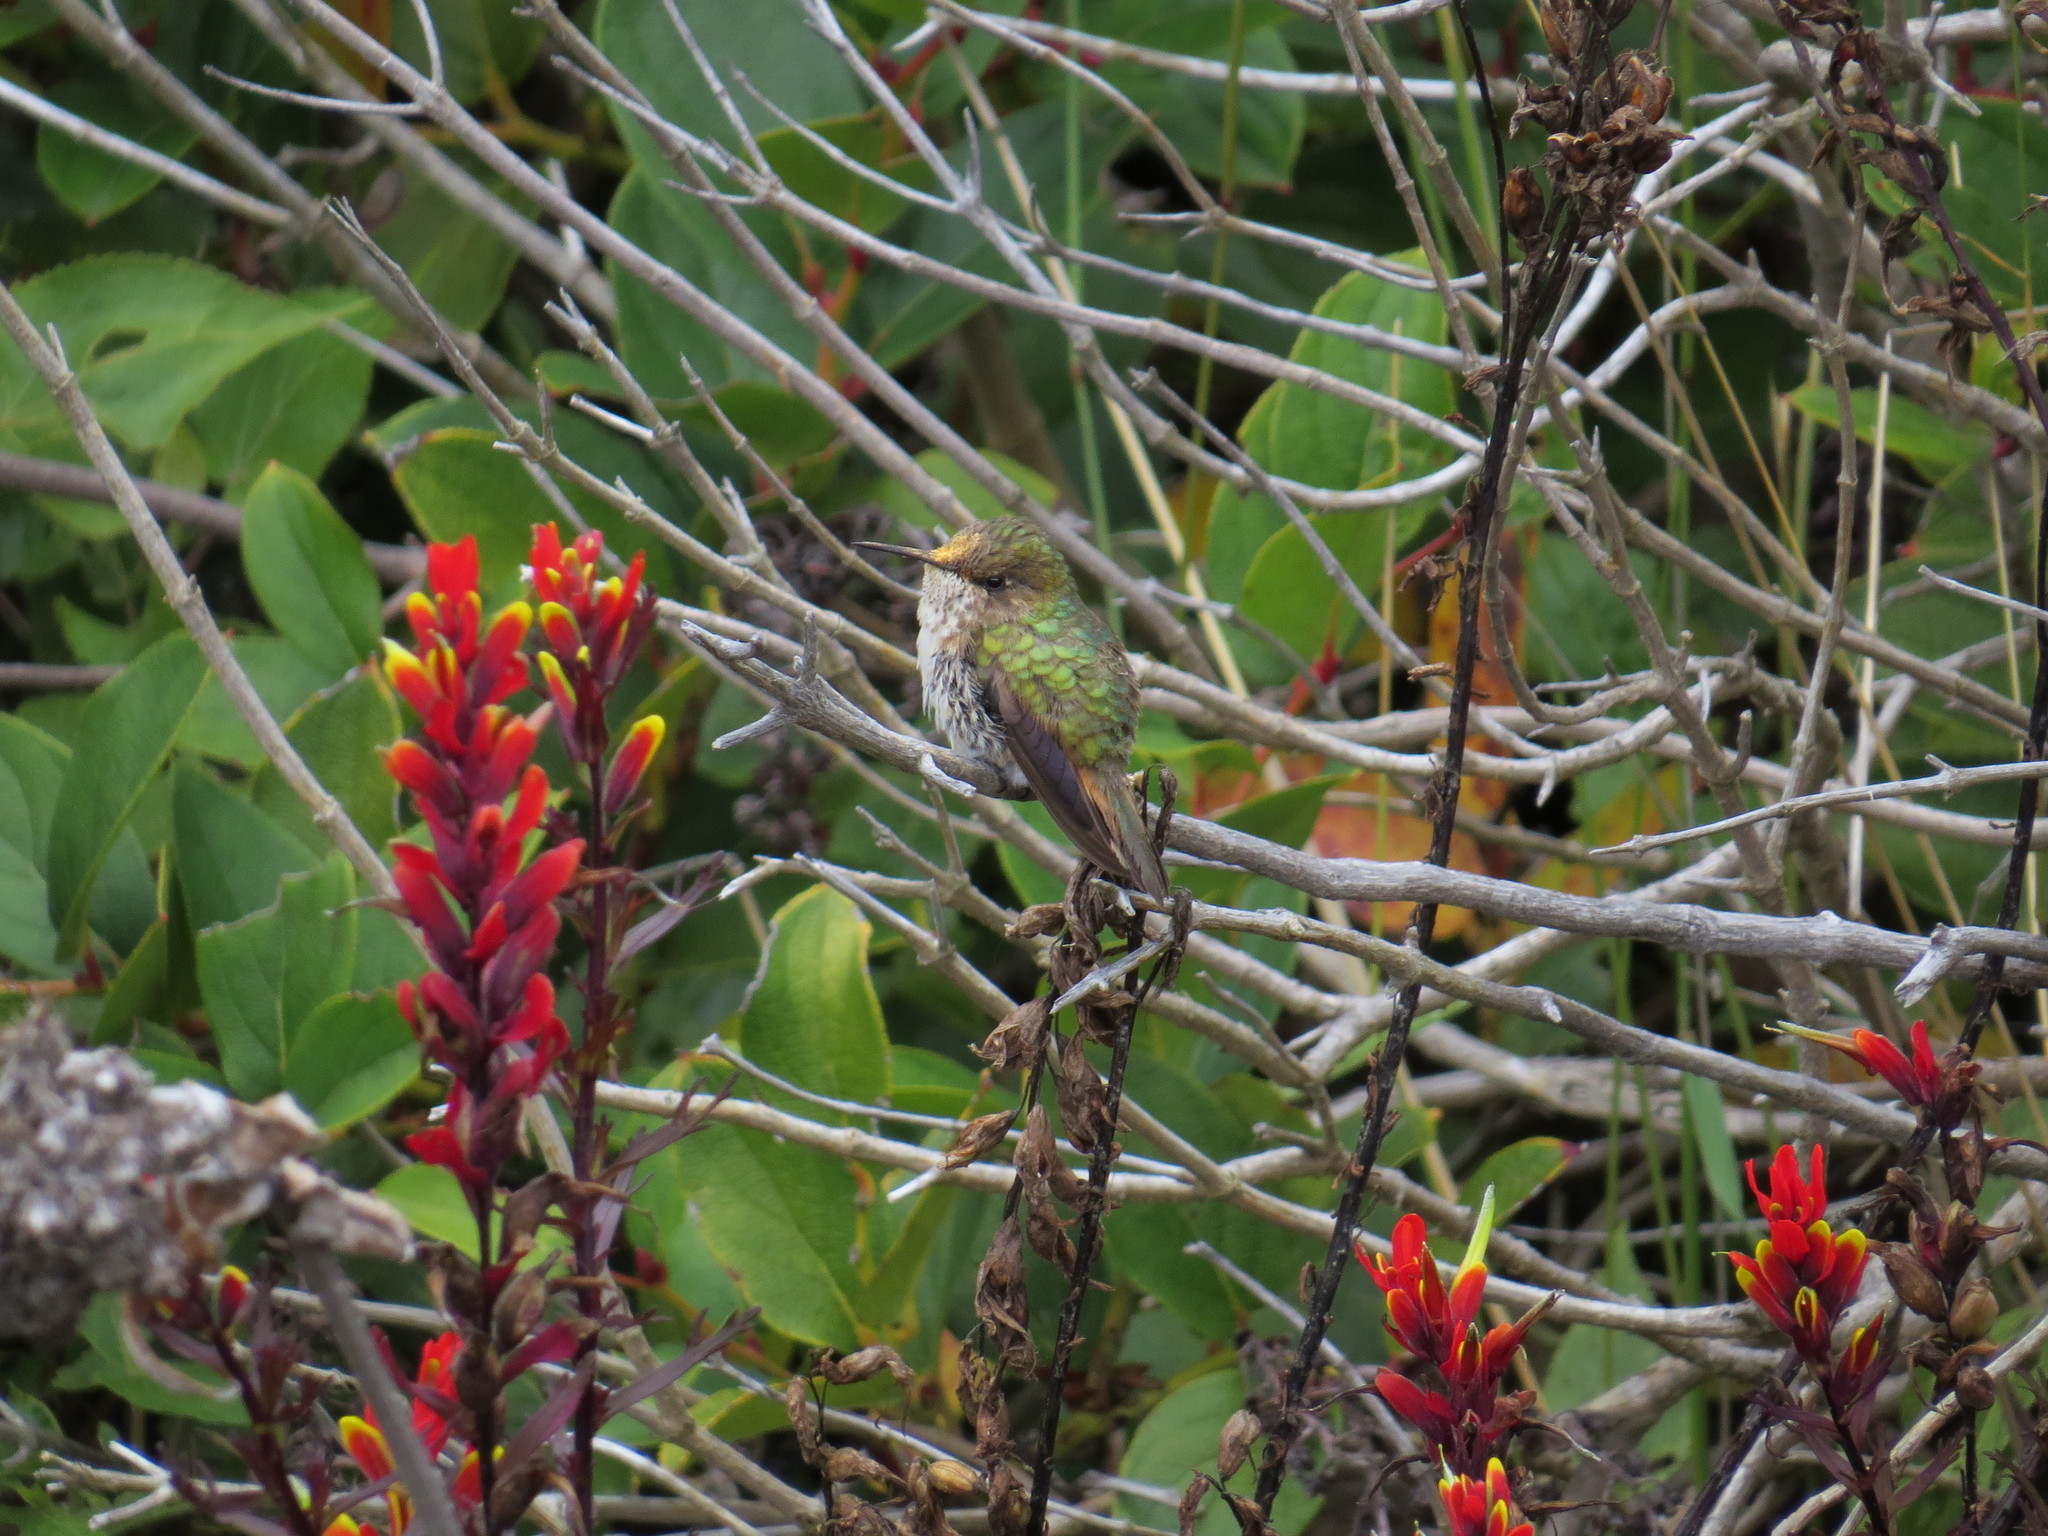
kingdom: Animalia
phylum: Chordata
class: Aves
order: Apodiformes
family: Trochilidae
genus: Selasphorus
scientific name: Selasphorus flammula
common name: Volcano hummingbird
